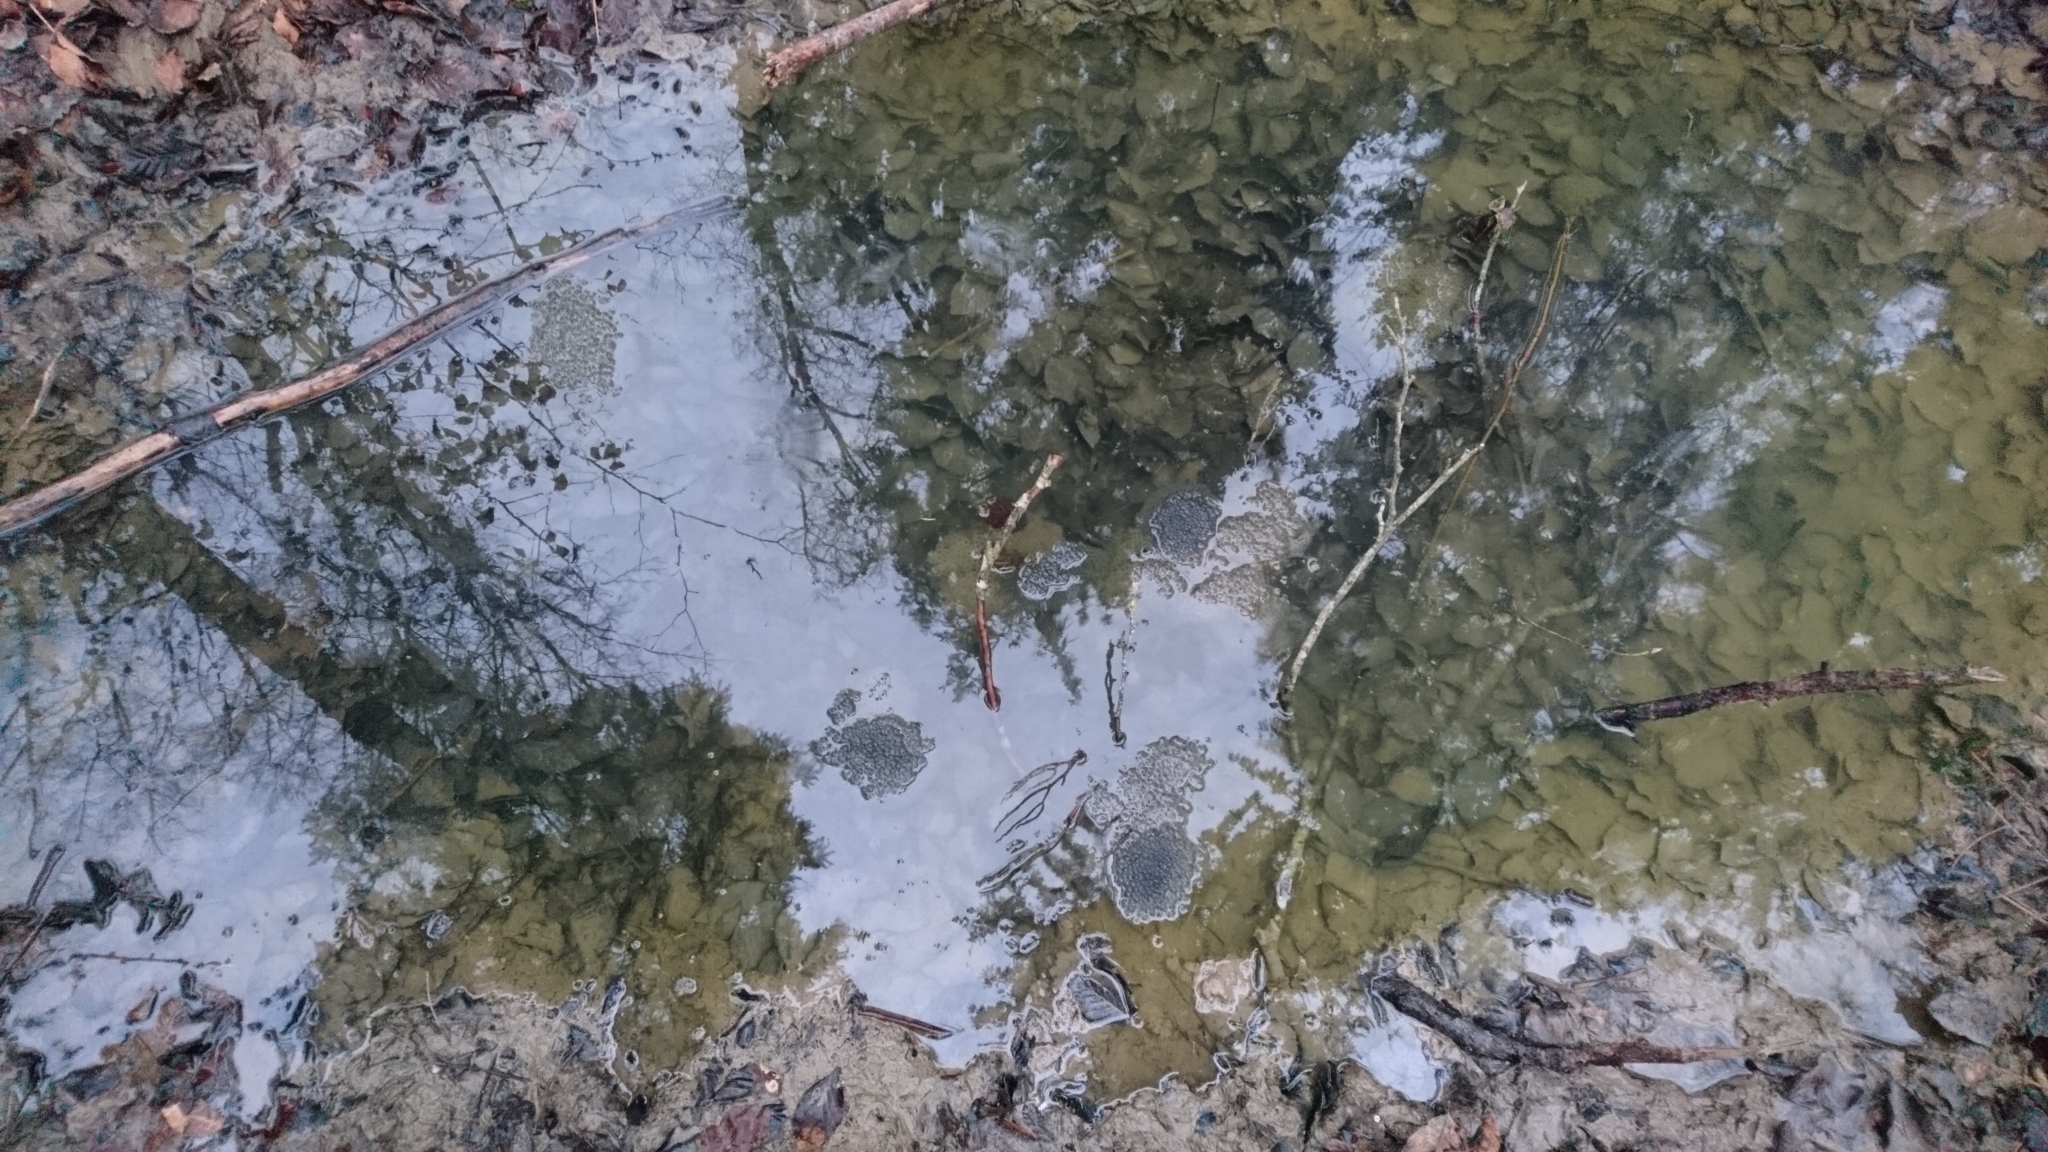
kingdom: Animalia
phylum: Chordata
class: Amphibia
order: Anura
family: Ranidae
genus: Rana
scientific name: Rana temporaria
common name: Common frog
